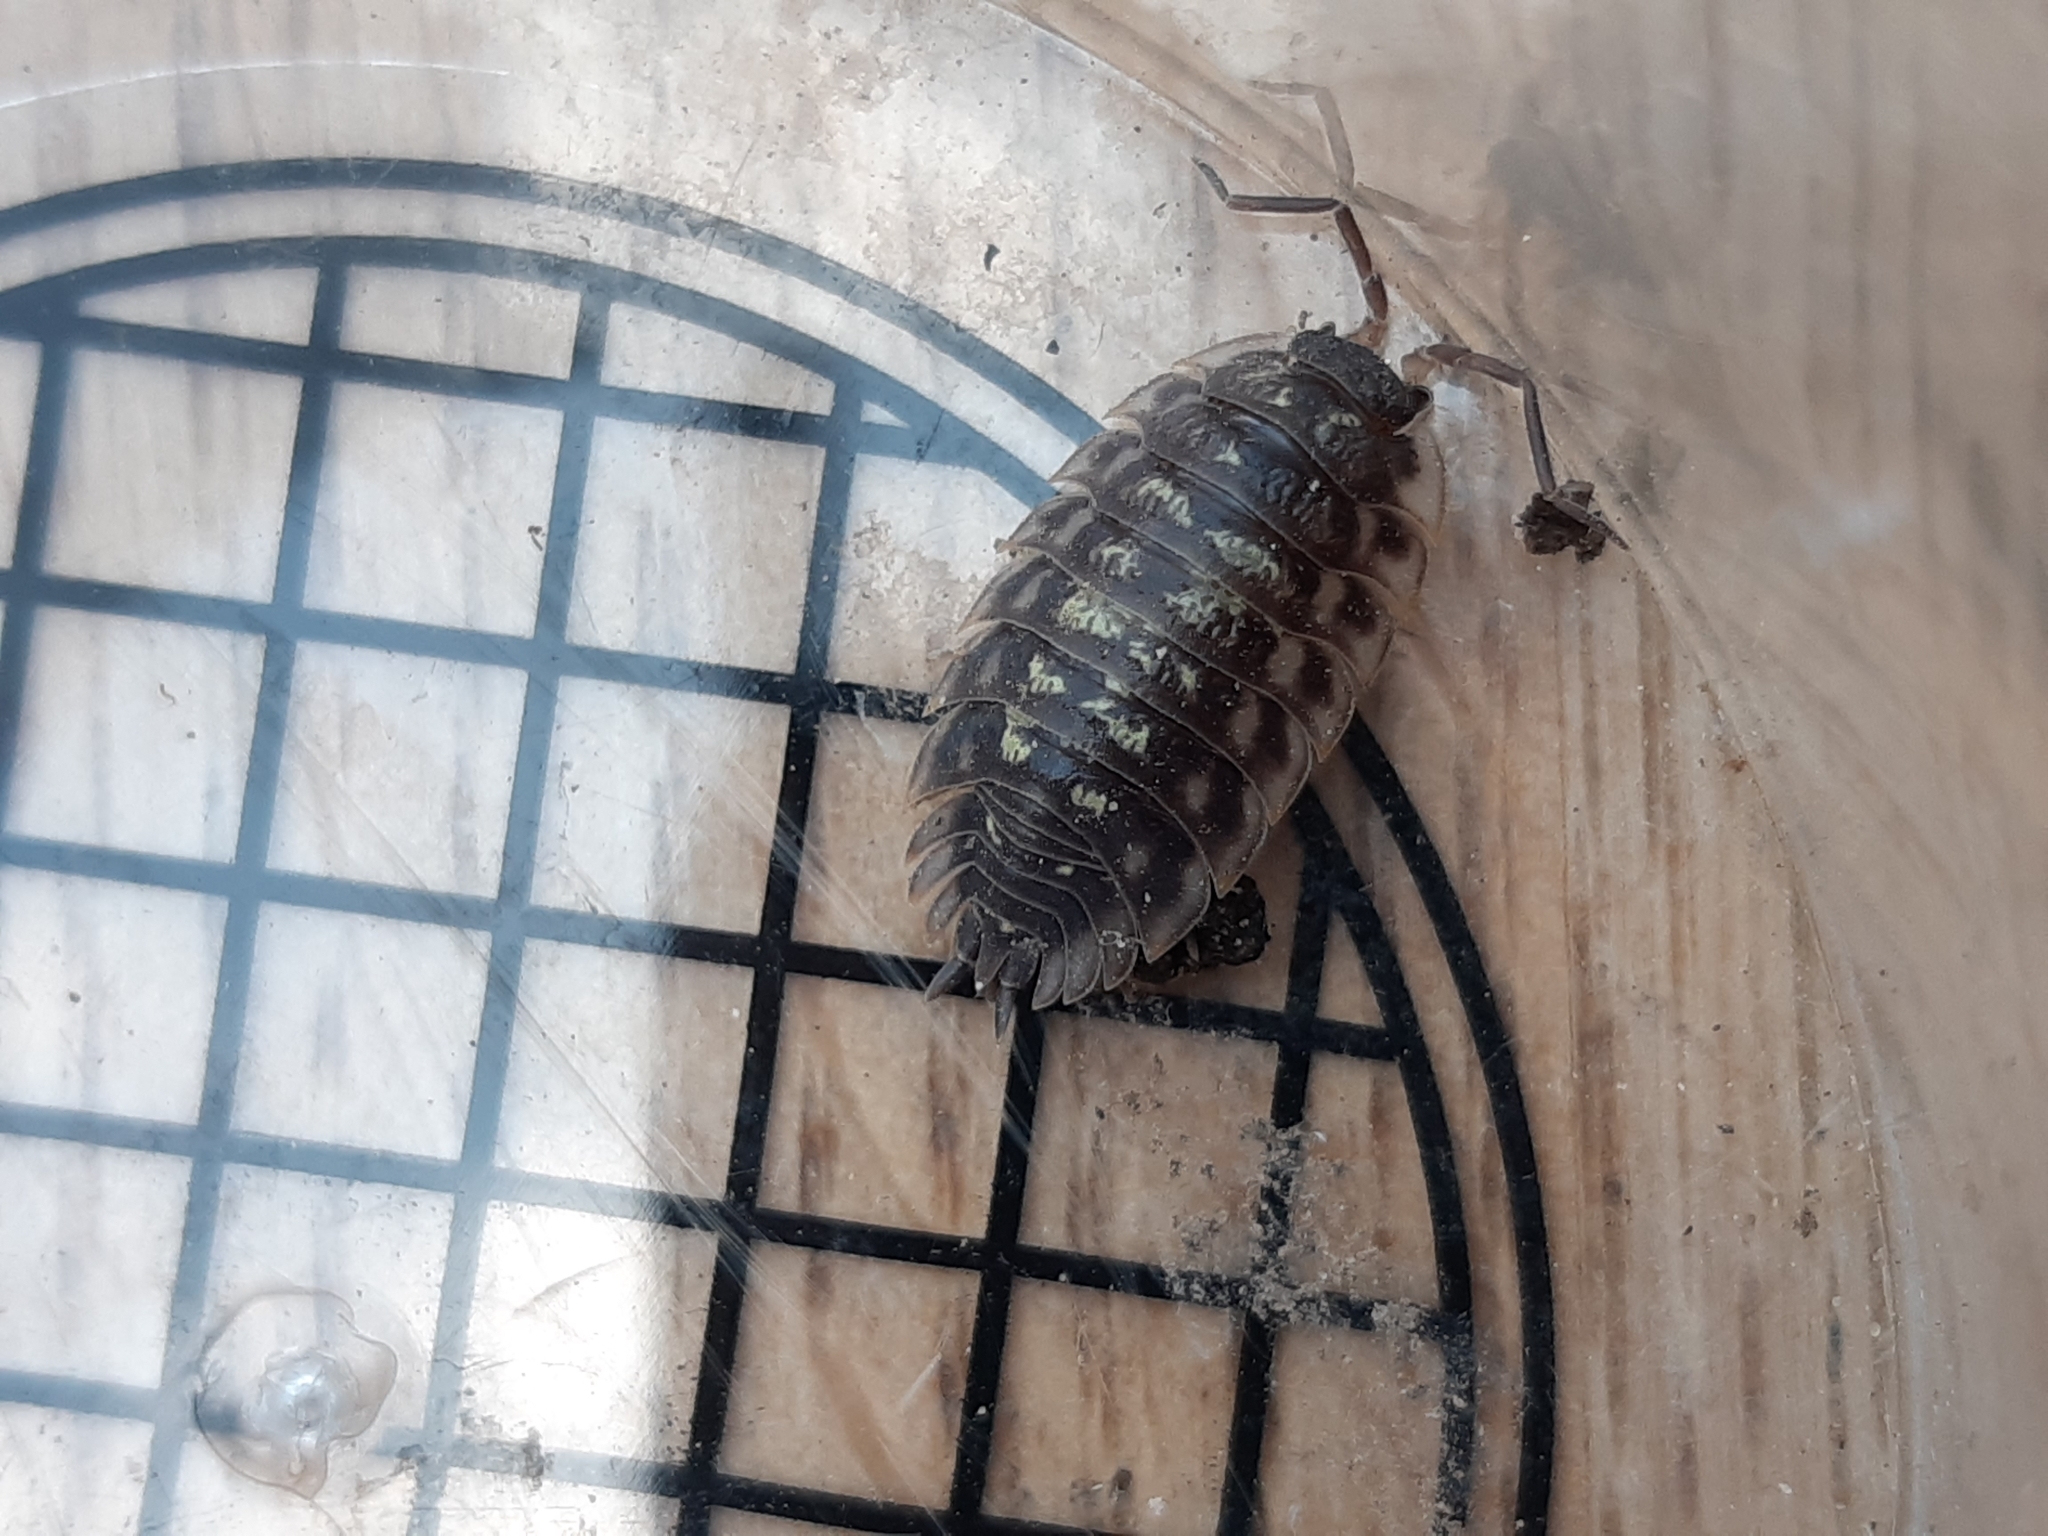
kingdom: Animalia
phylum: Arthropoda
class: Malacostraca
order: Isopoda
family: Oniscidae
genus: Oniscus
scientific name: Oniscus asellus
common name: Common shiny woodlouse
